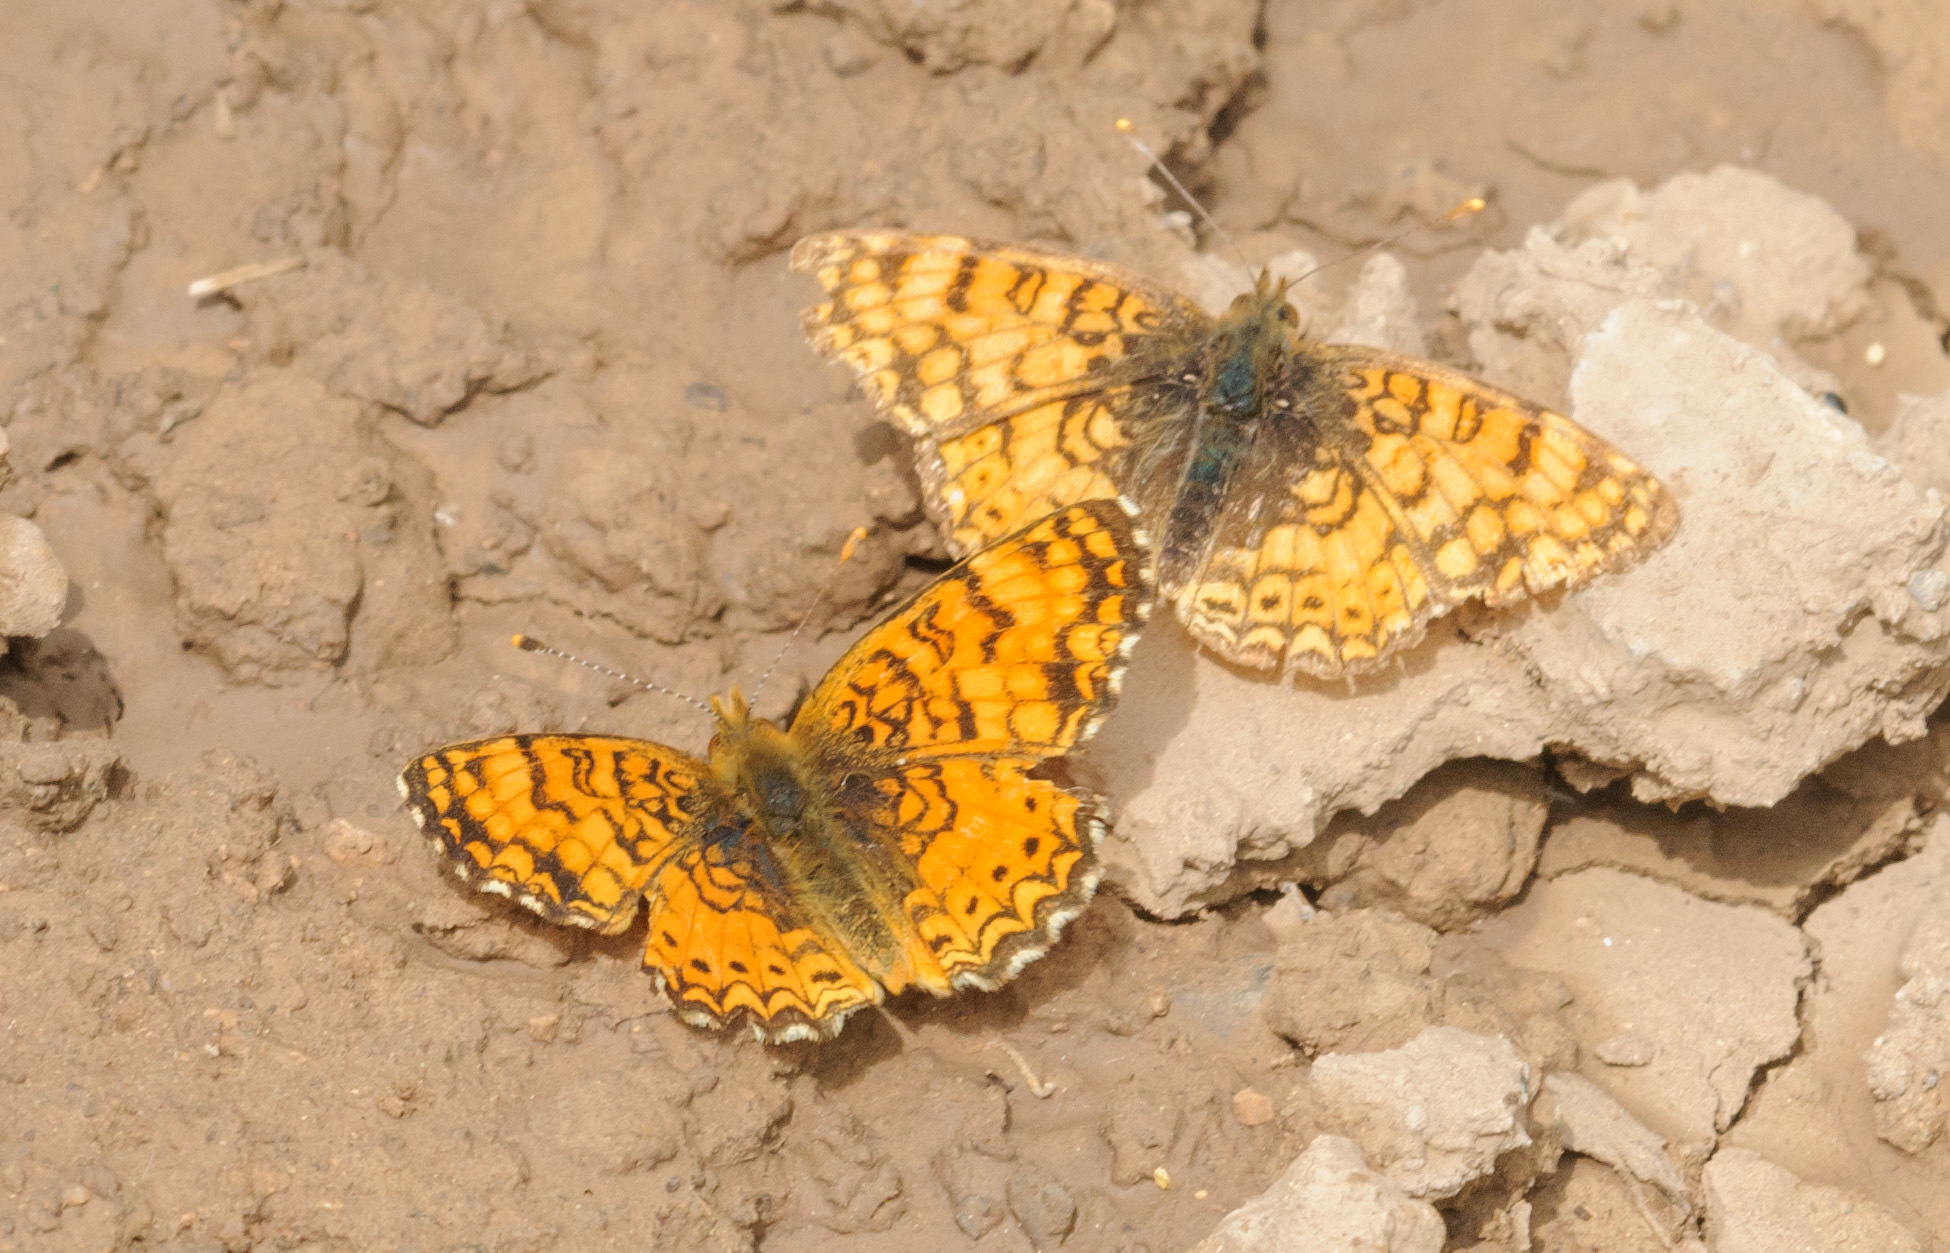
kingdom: Animalia
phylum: Arthropoda
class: Insecta
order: Lepidoptera
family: Nymphalidae
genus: Eresia
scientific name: Eresia aveyrona
